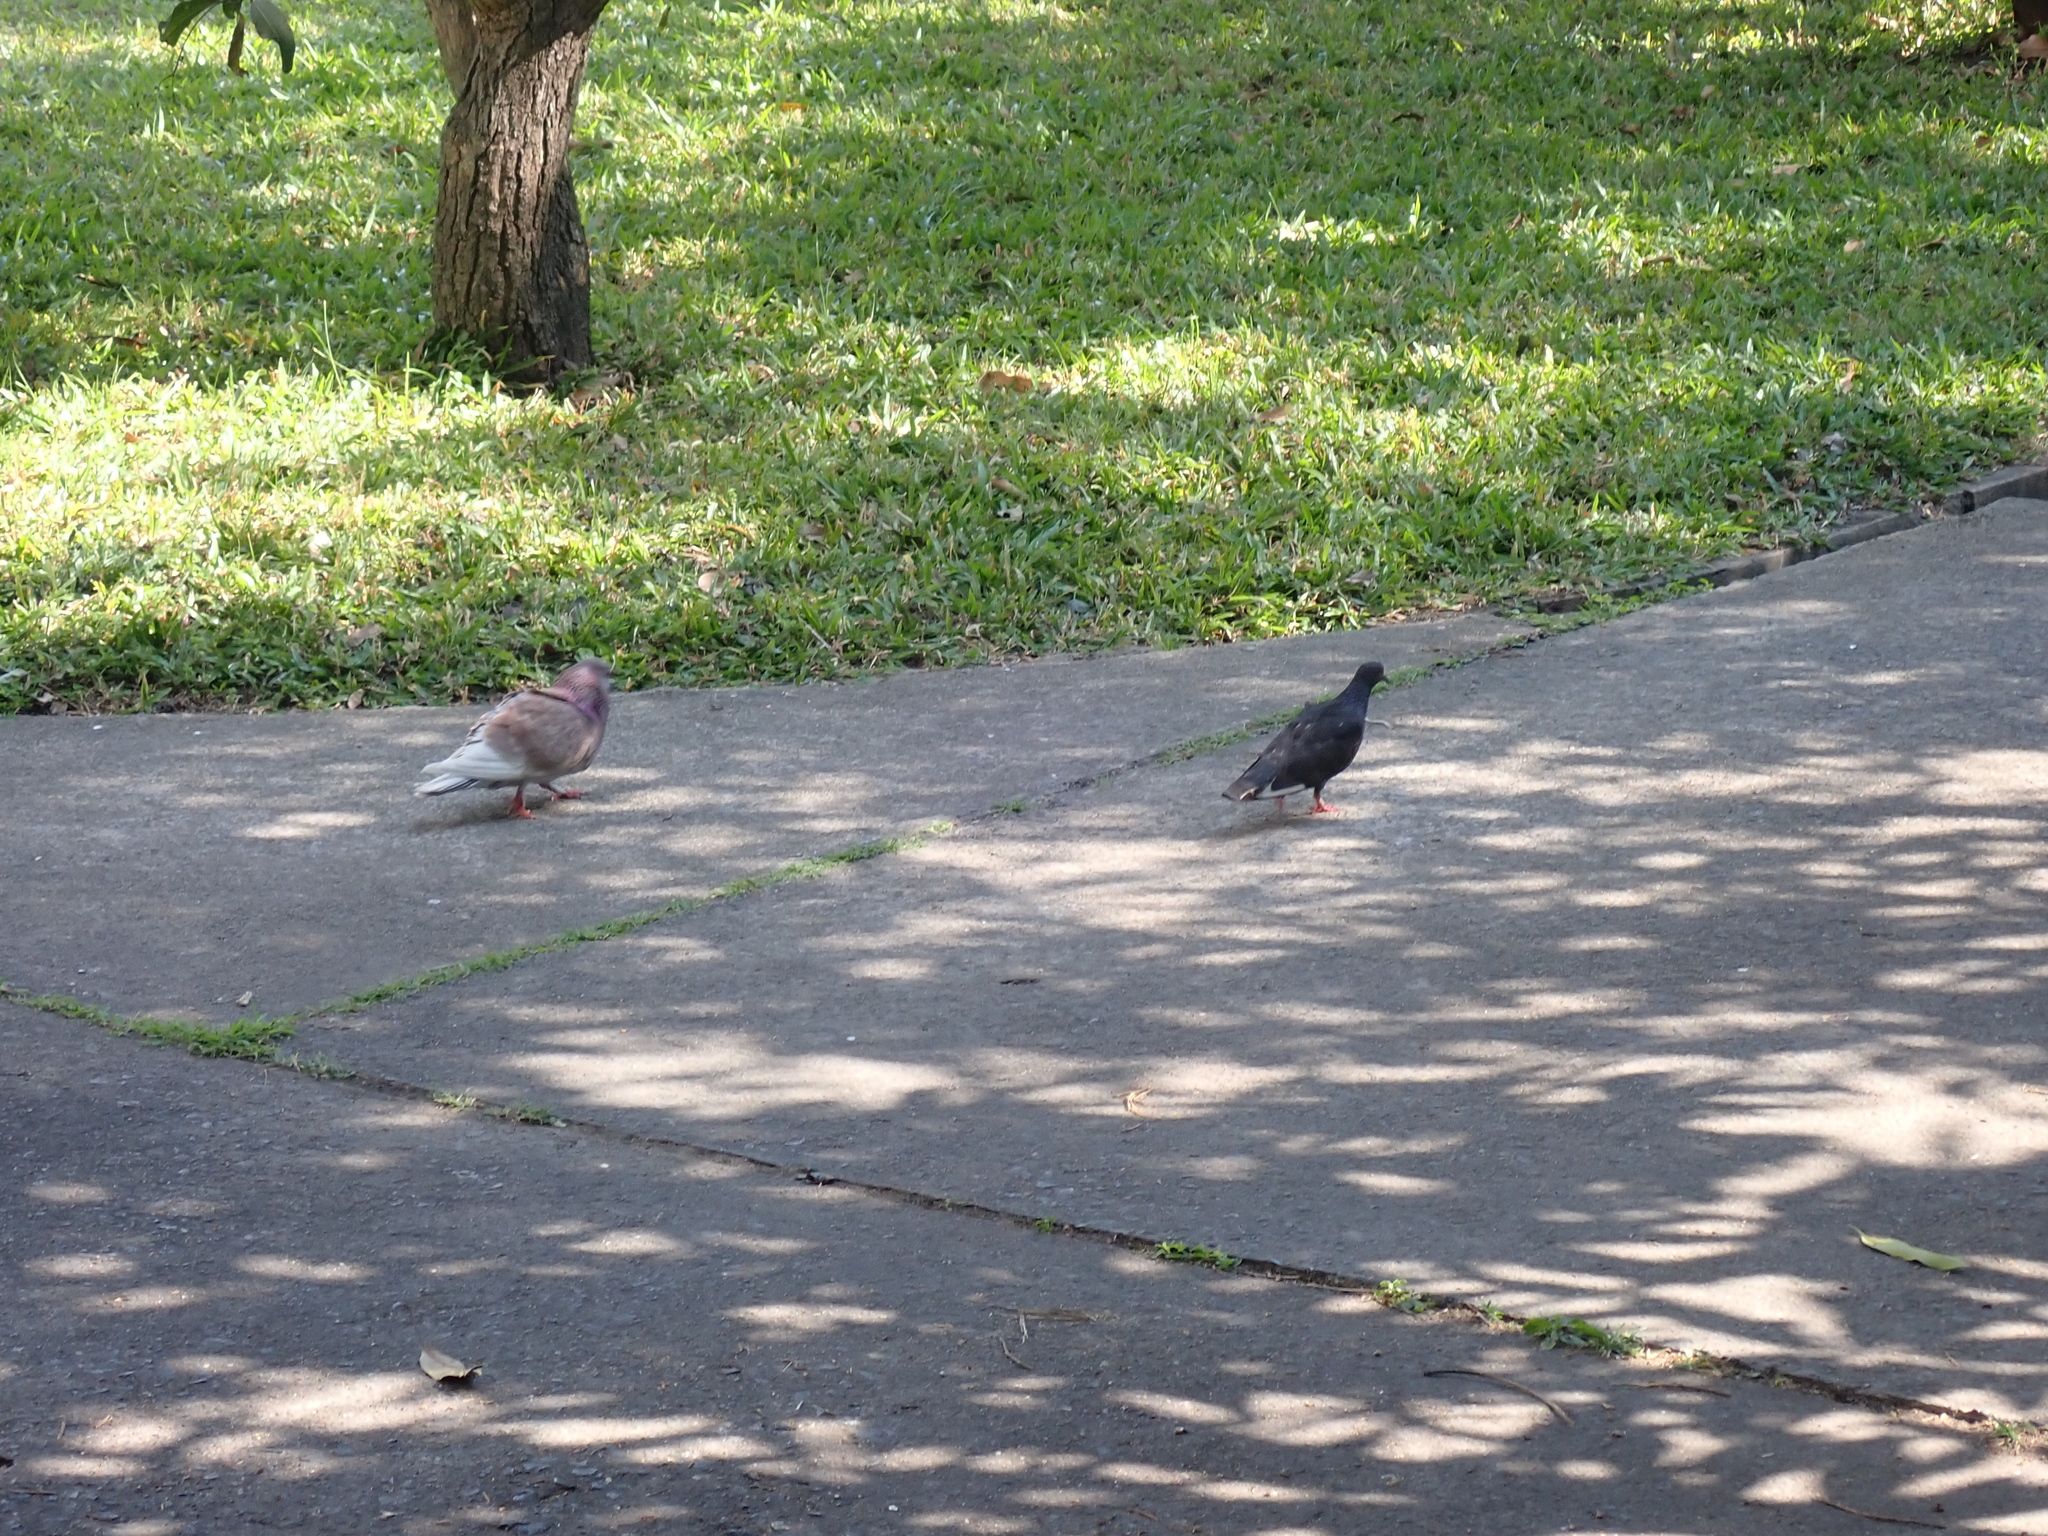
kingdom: Animalia
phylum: Chordata
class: Aves
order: Columbiformes
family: Columbidae
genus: Columba
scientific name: Columba livia
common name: Rock pigeon
